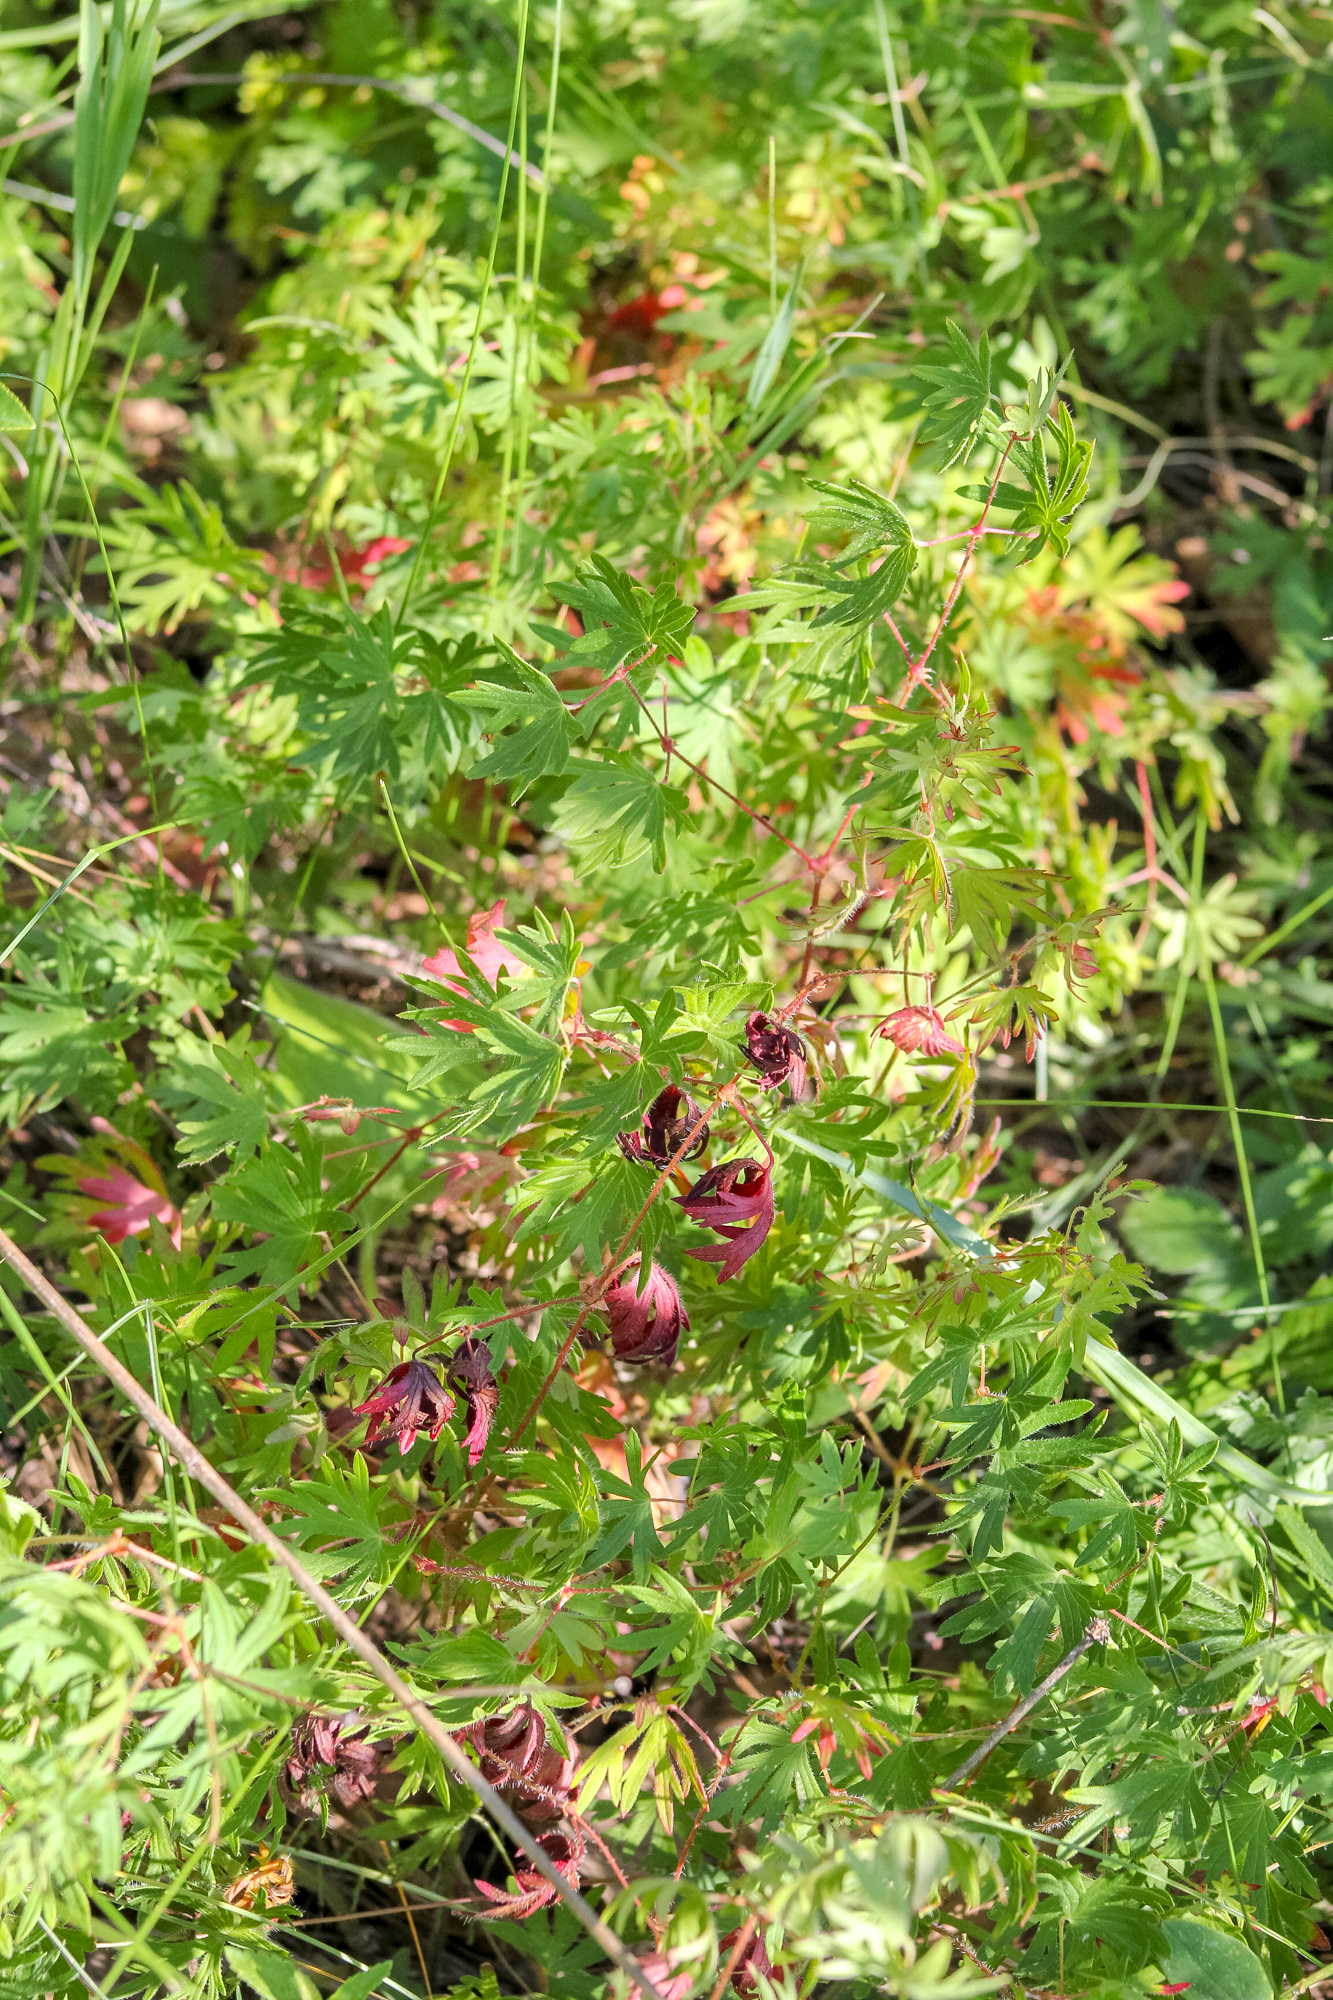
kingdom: Plantae
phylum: Tracheophyta
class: Magnoliopsida
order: Geraniales
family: Geraniaceae
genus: Geranium
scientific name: Geranium sanguineum
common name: Bloody crane's-bill
